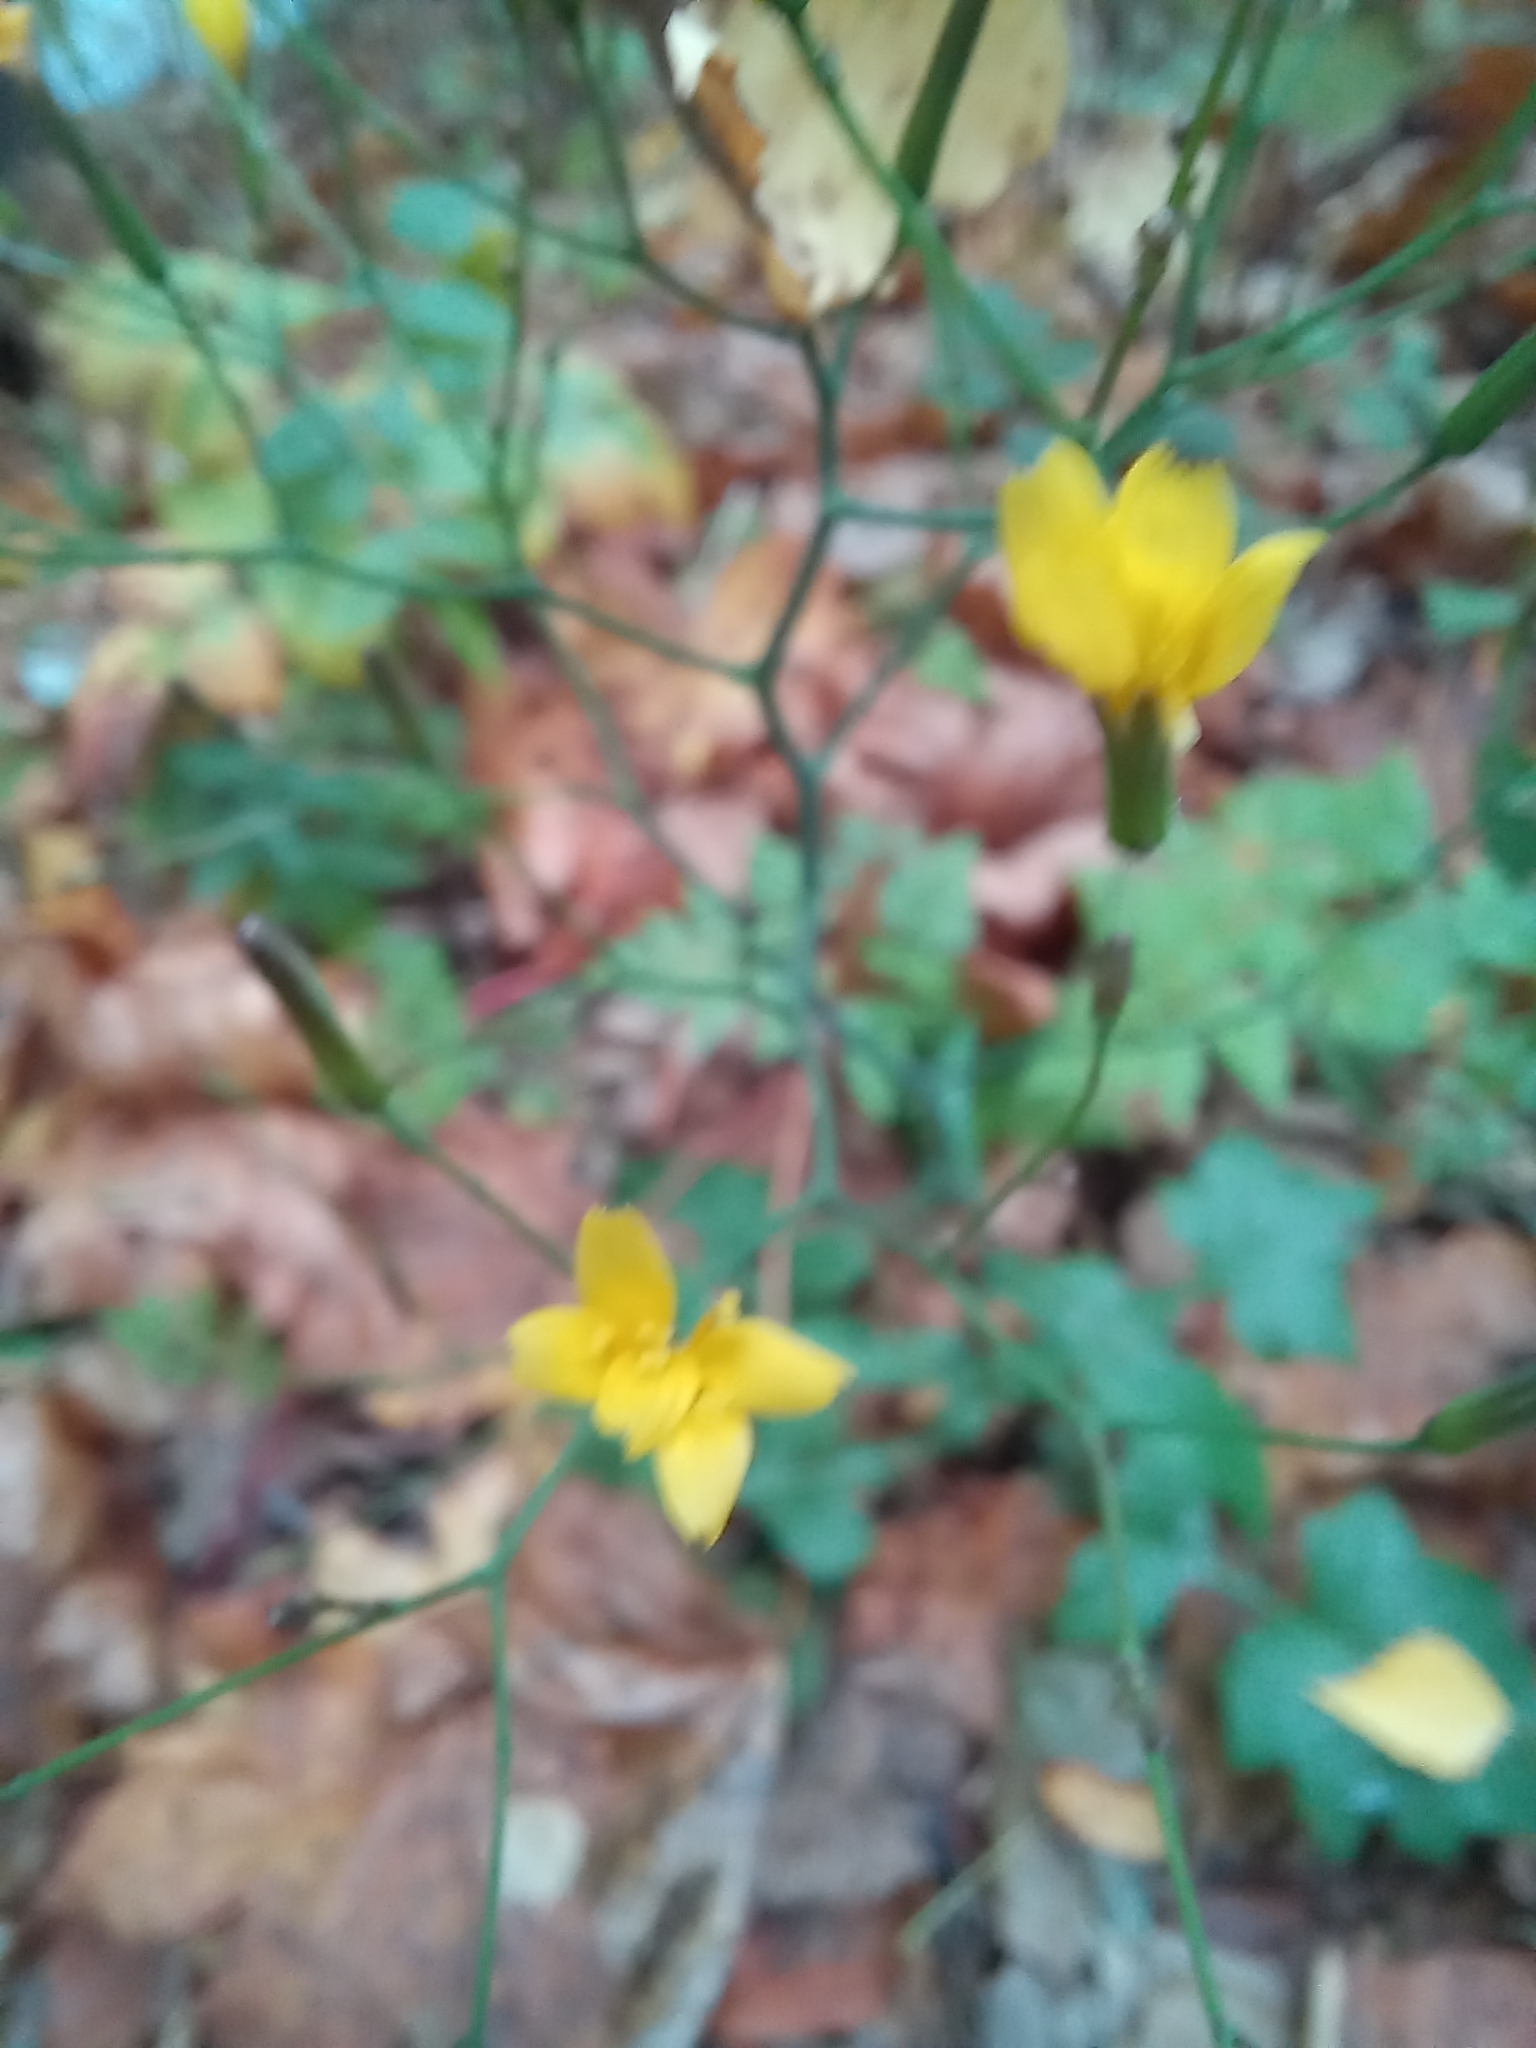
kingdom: Plantae
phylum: Tracheophyta
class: Magnoliopsida
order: Asterales
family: Asteraceae
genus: Mycelis
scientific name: Mycelis muralis
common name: Wall lettuce
